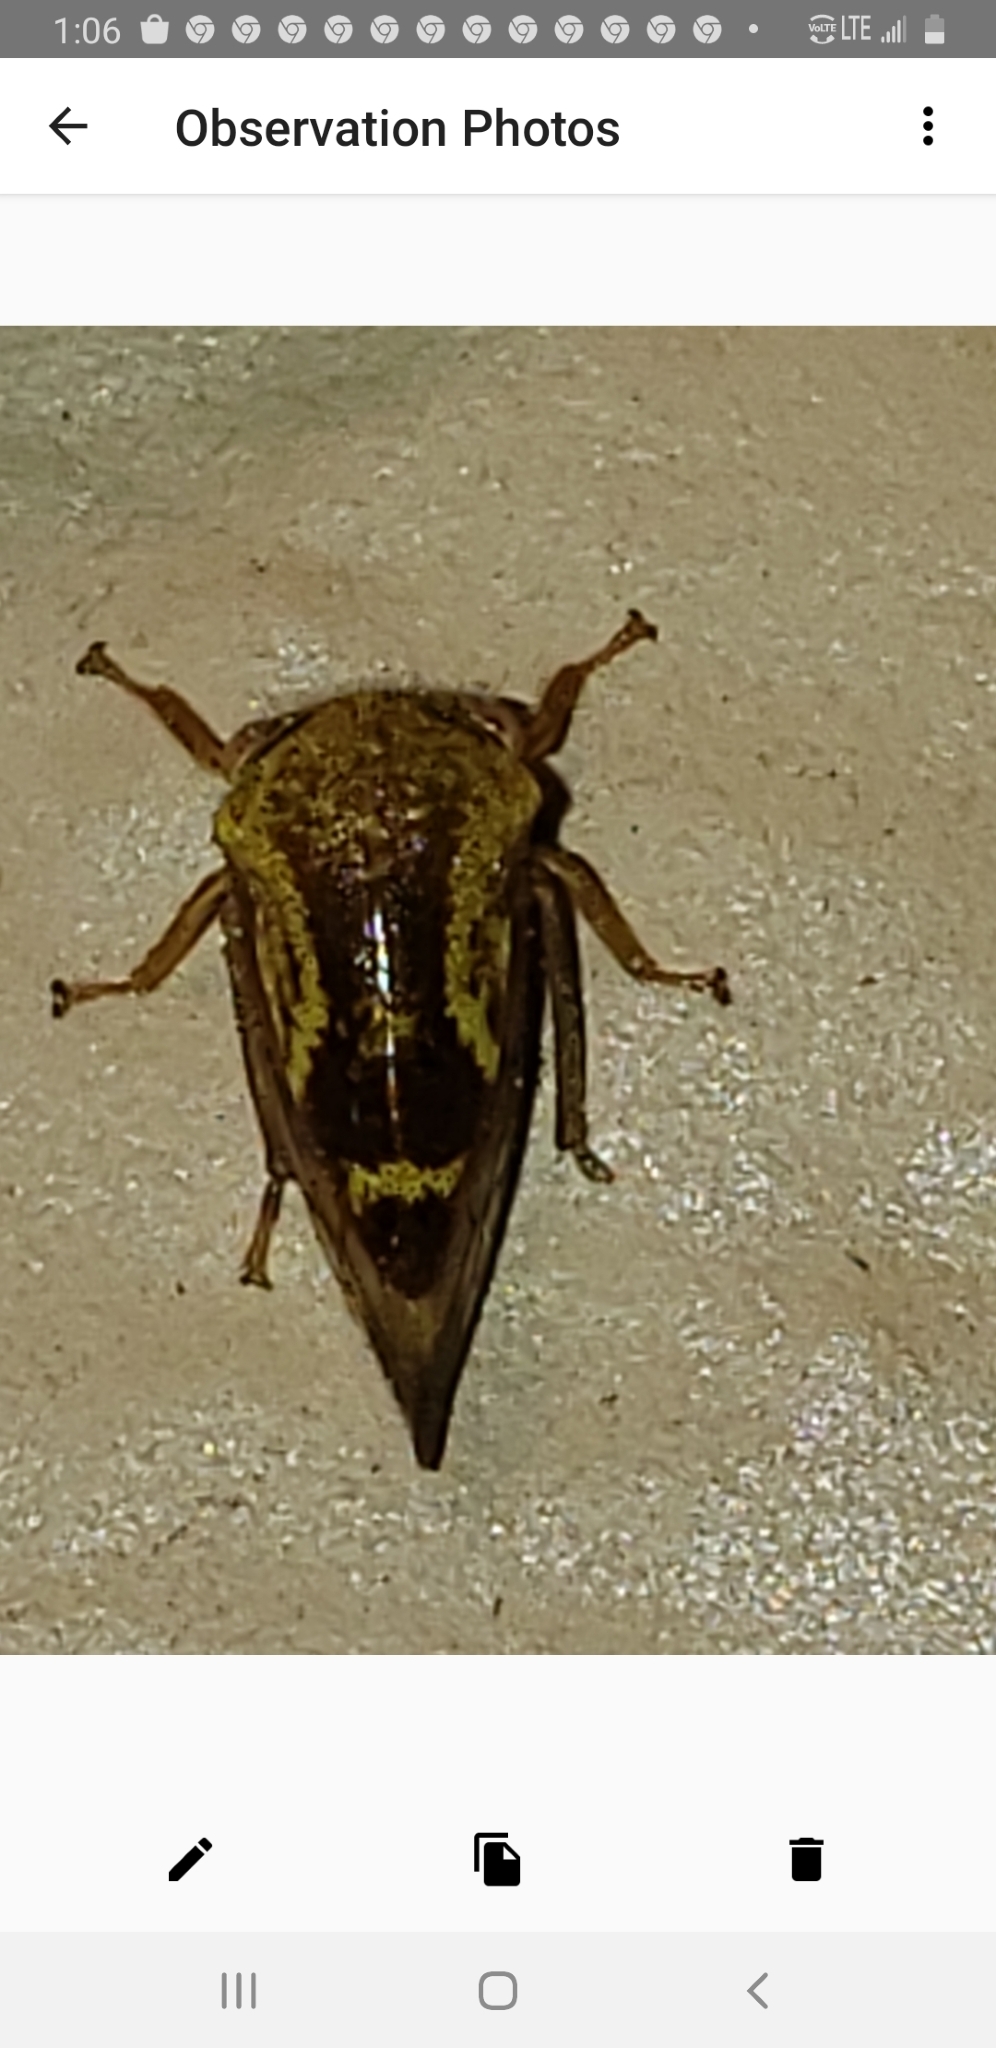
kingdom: Animalia
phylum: Arthropoda
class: Insecta
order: Hemiptera
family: Membracidae
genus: Ophiderma
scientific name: Ophiderma evelyna
